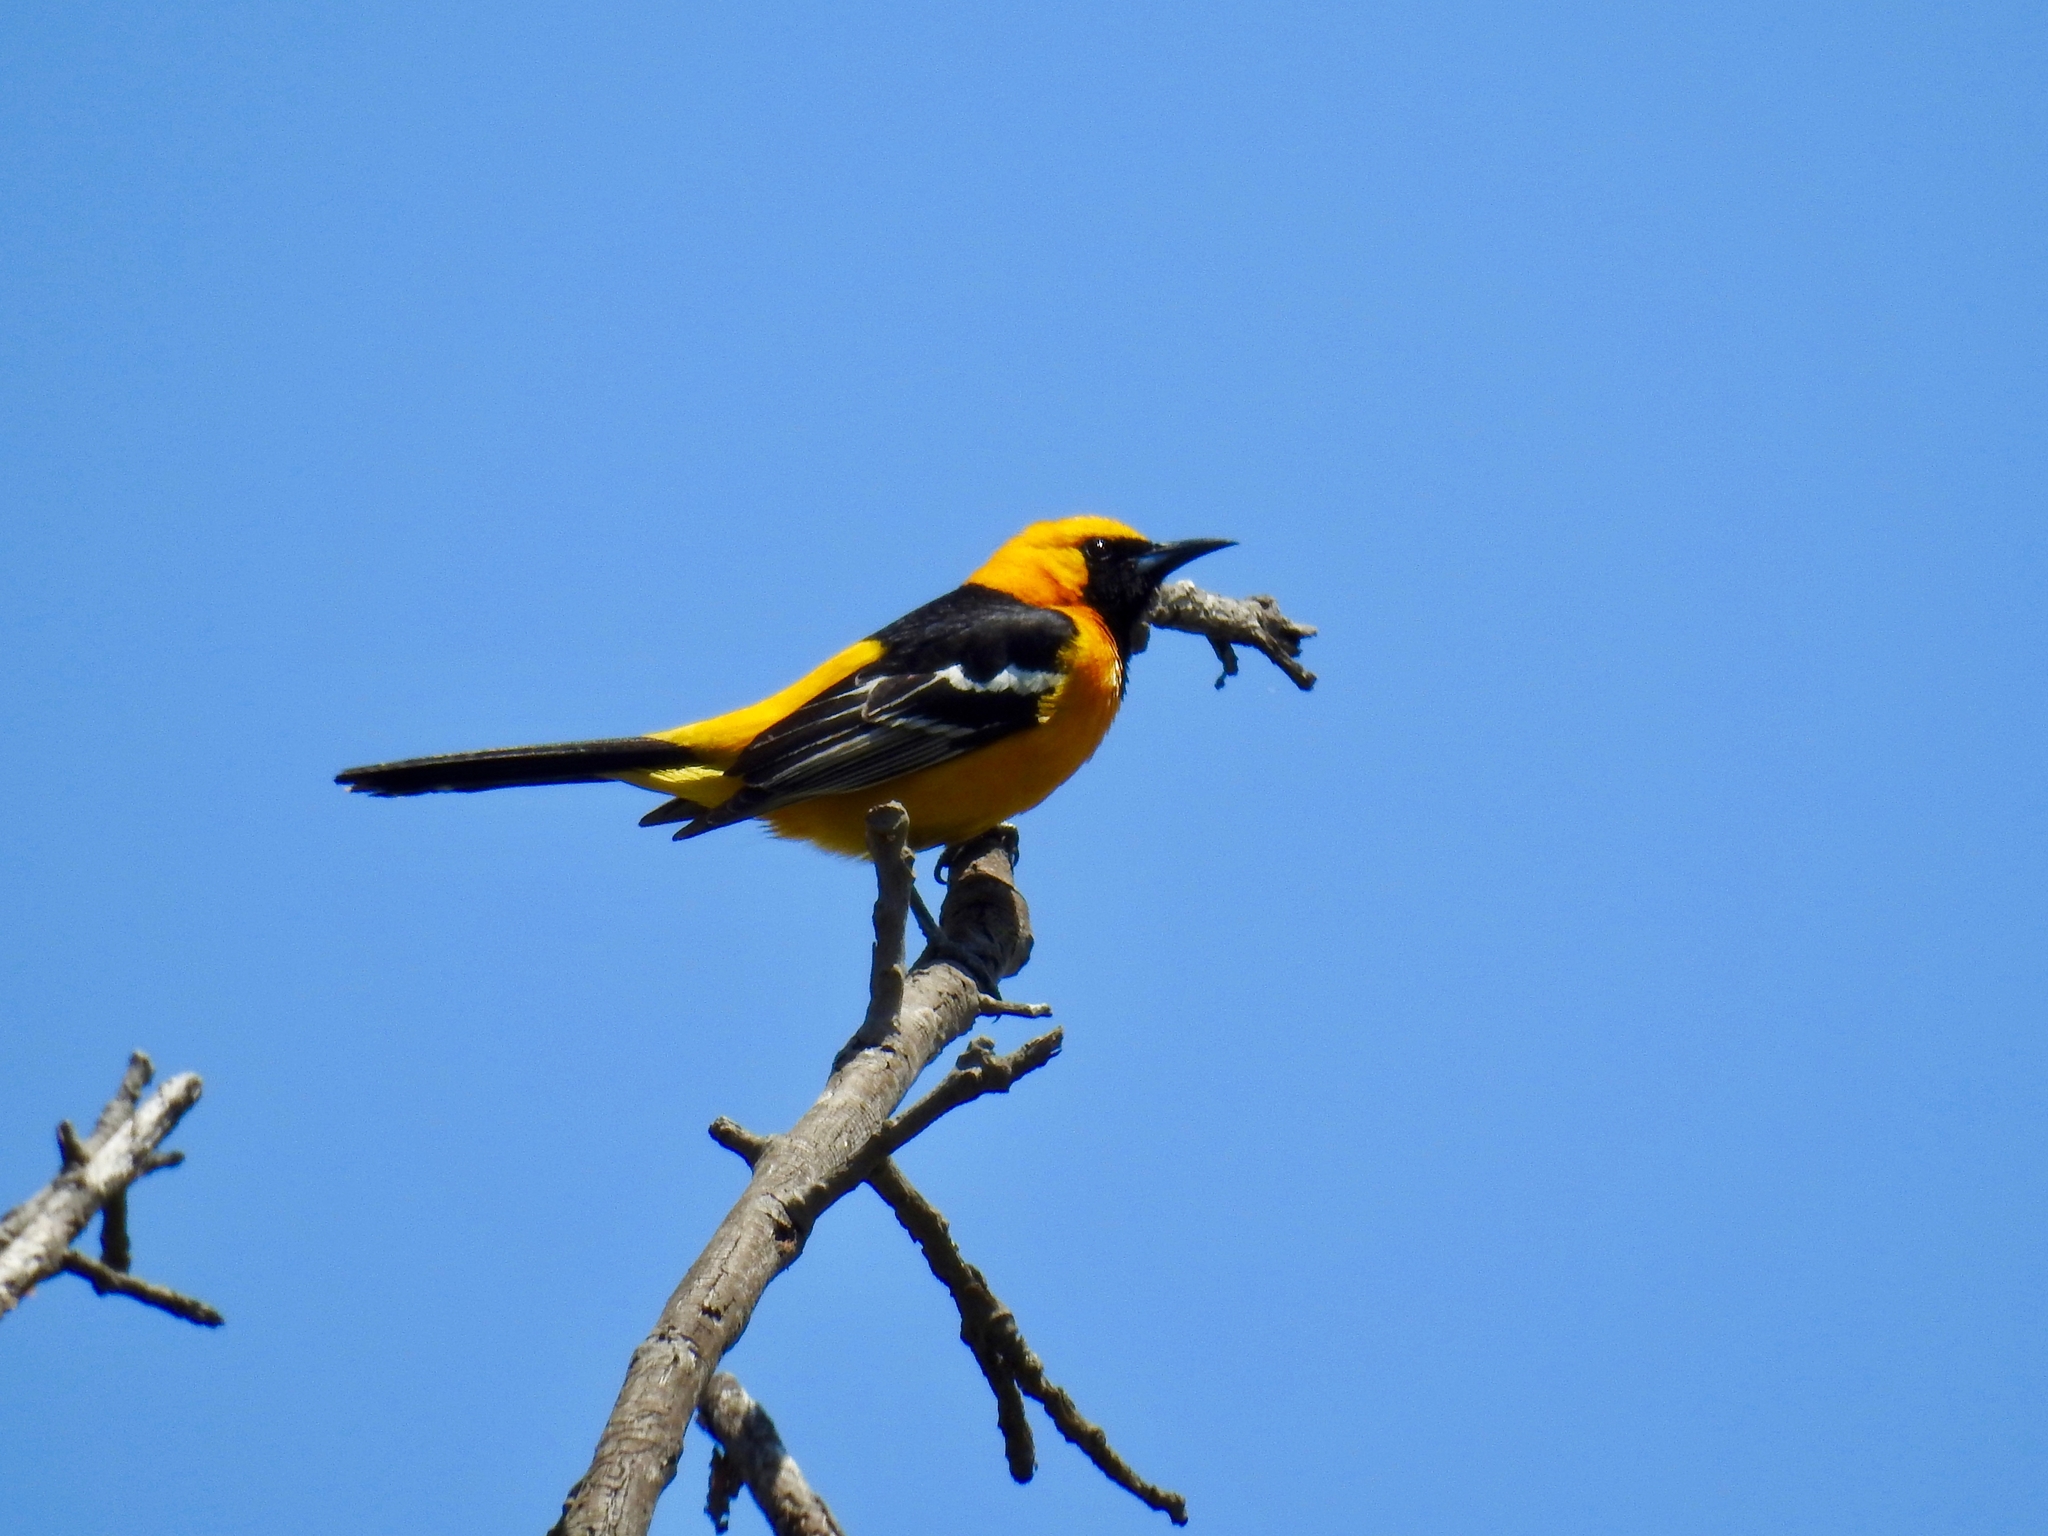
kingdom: Animalia
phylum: Chordata
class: Aves
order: Passeriformes
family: Icteridae
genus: Icterus
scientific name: Icterus cucullatus
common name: Hooded oriole
